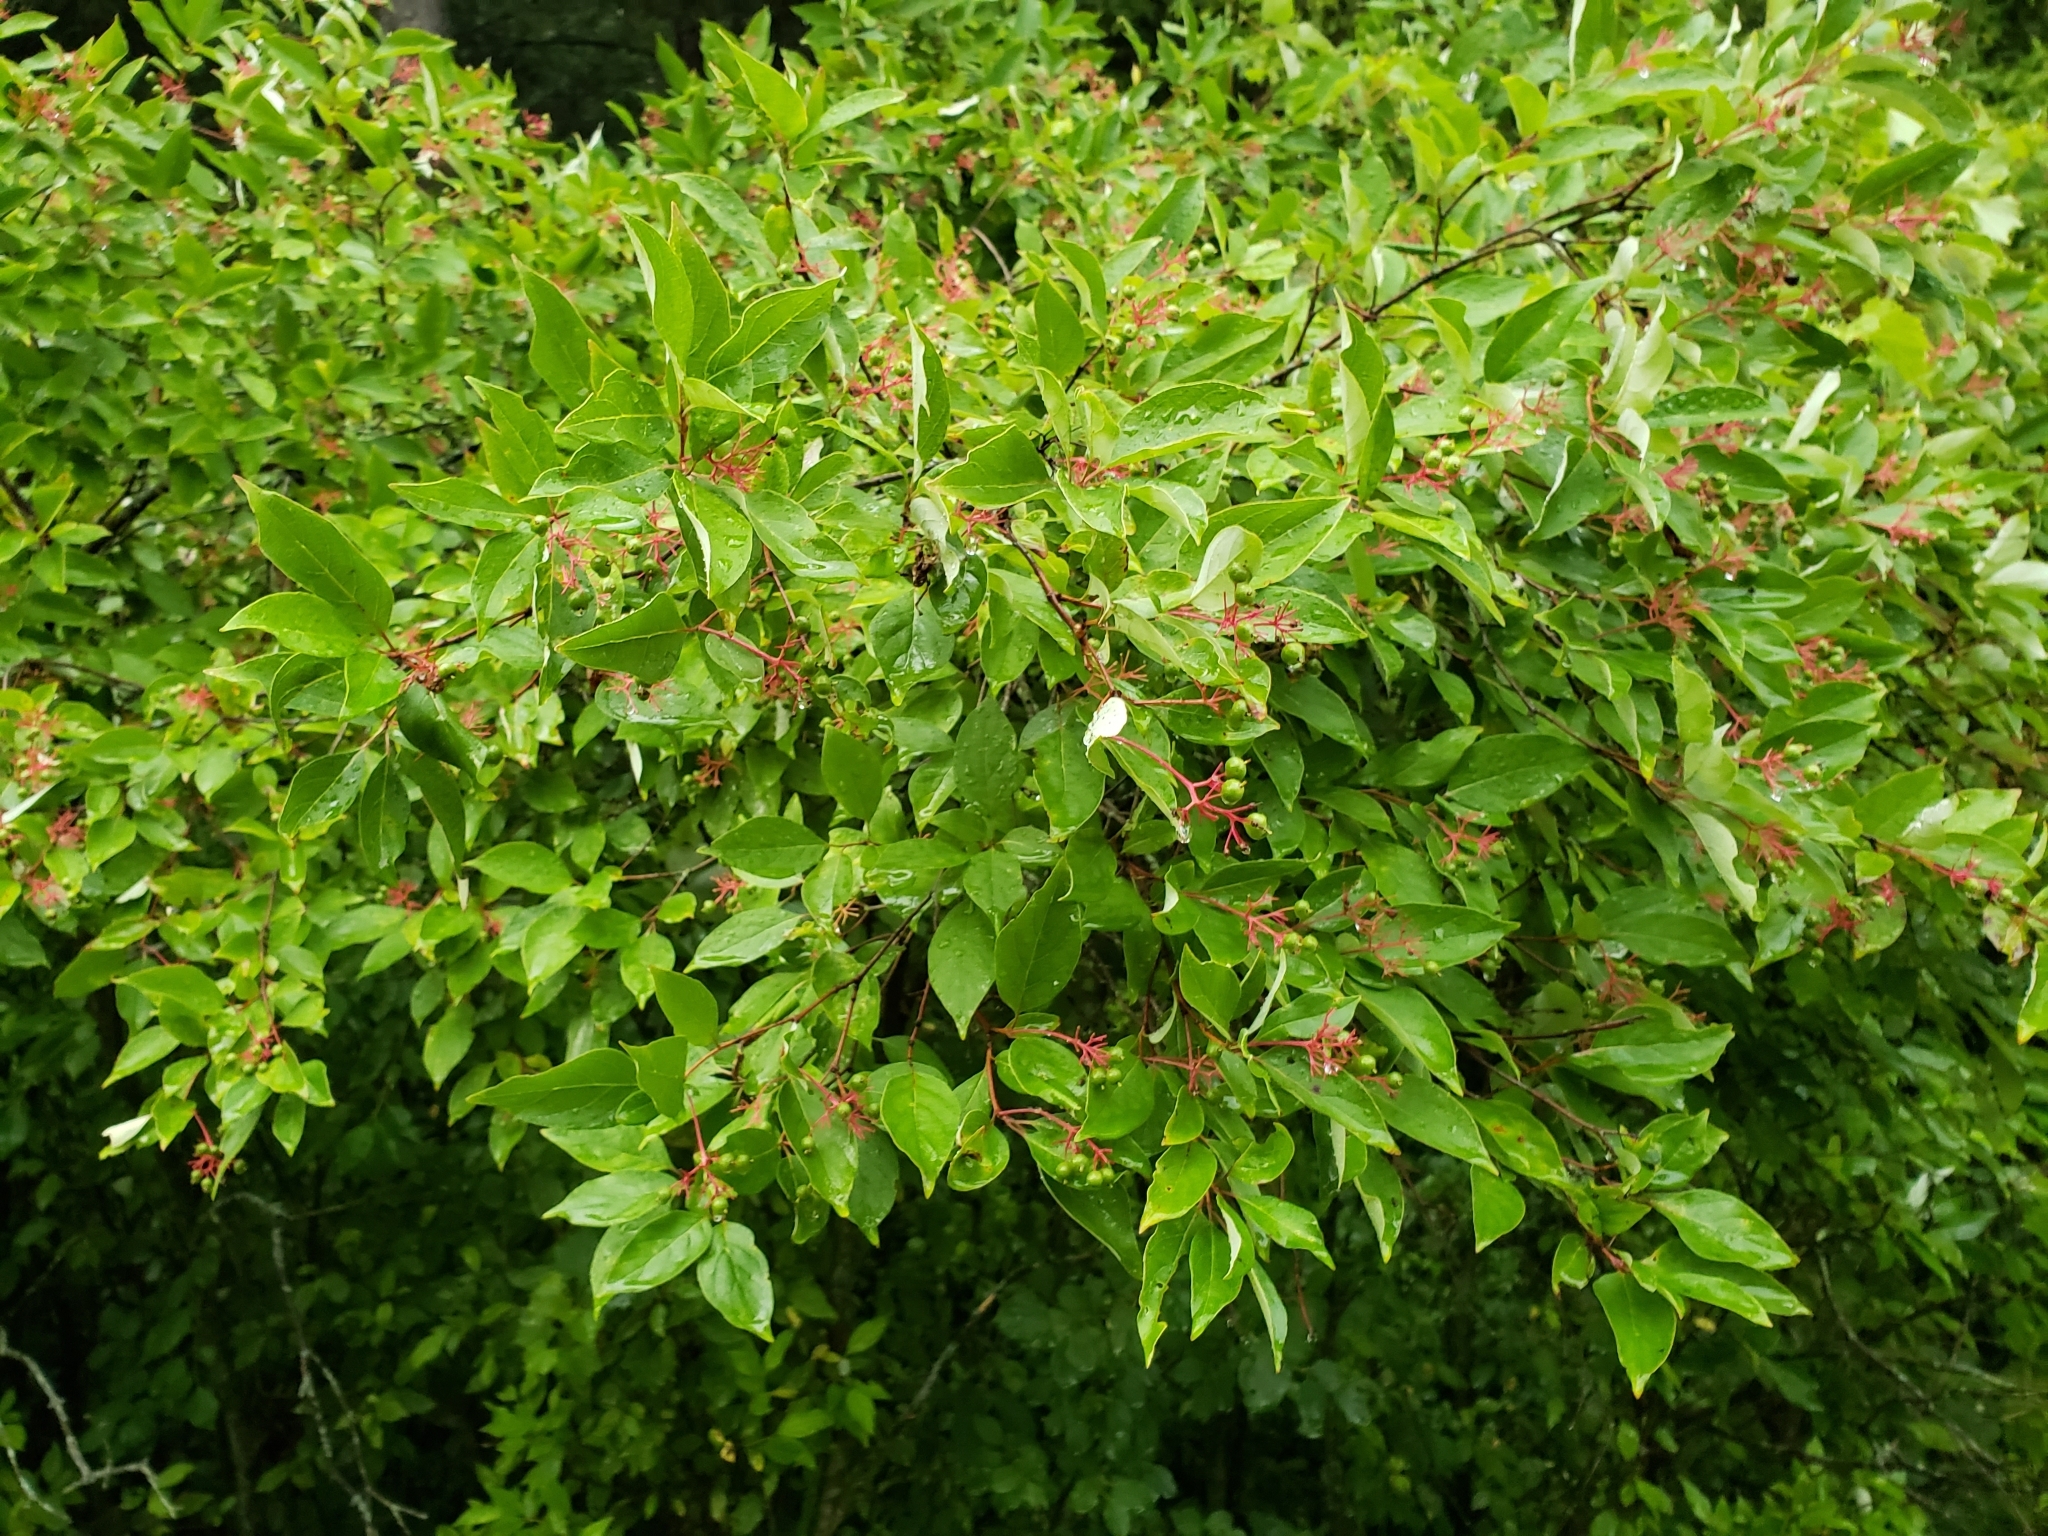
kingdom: Plantae
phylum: Tracheophyta
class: Magnoliopsida
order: Cornales
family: Cornaceae
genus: Cornus
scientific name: Cornus racemosa
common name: Panicled dogwood
